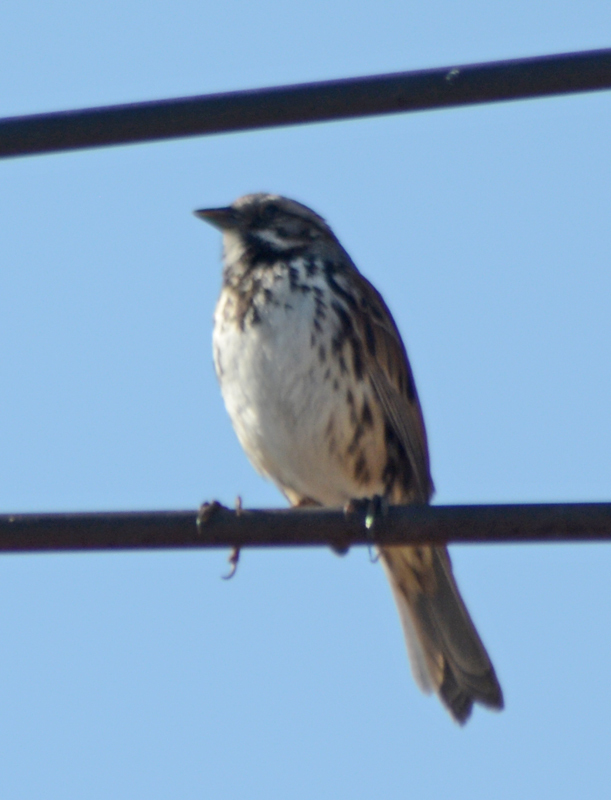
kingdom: Animalia
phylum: Chordata
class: Aves
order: Passeriformes
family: Passerellidae
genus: Melospiza
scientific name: Melospiza melodia
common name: Song sparrow
